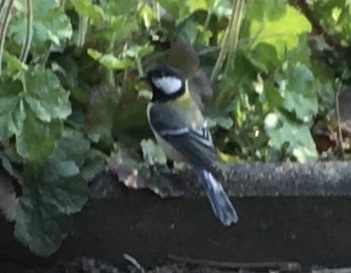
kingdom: Animalia
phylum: Chordata
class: Aves
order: Passeriformes
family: Paridae
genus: Parus
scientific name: Parus major
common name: Great tit
